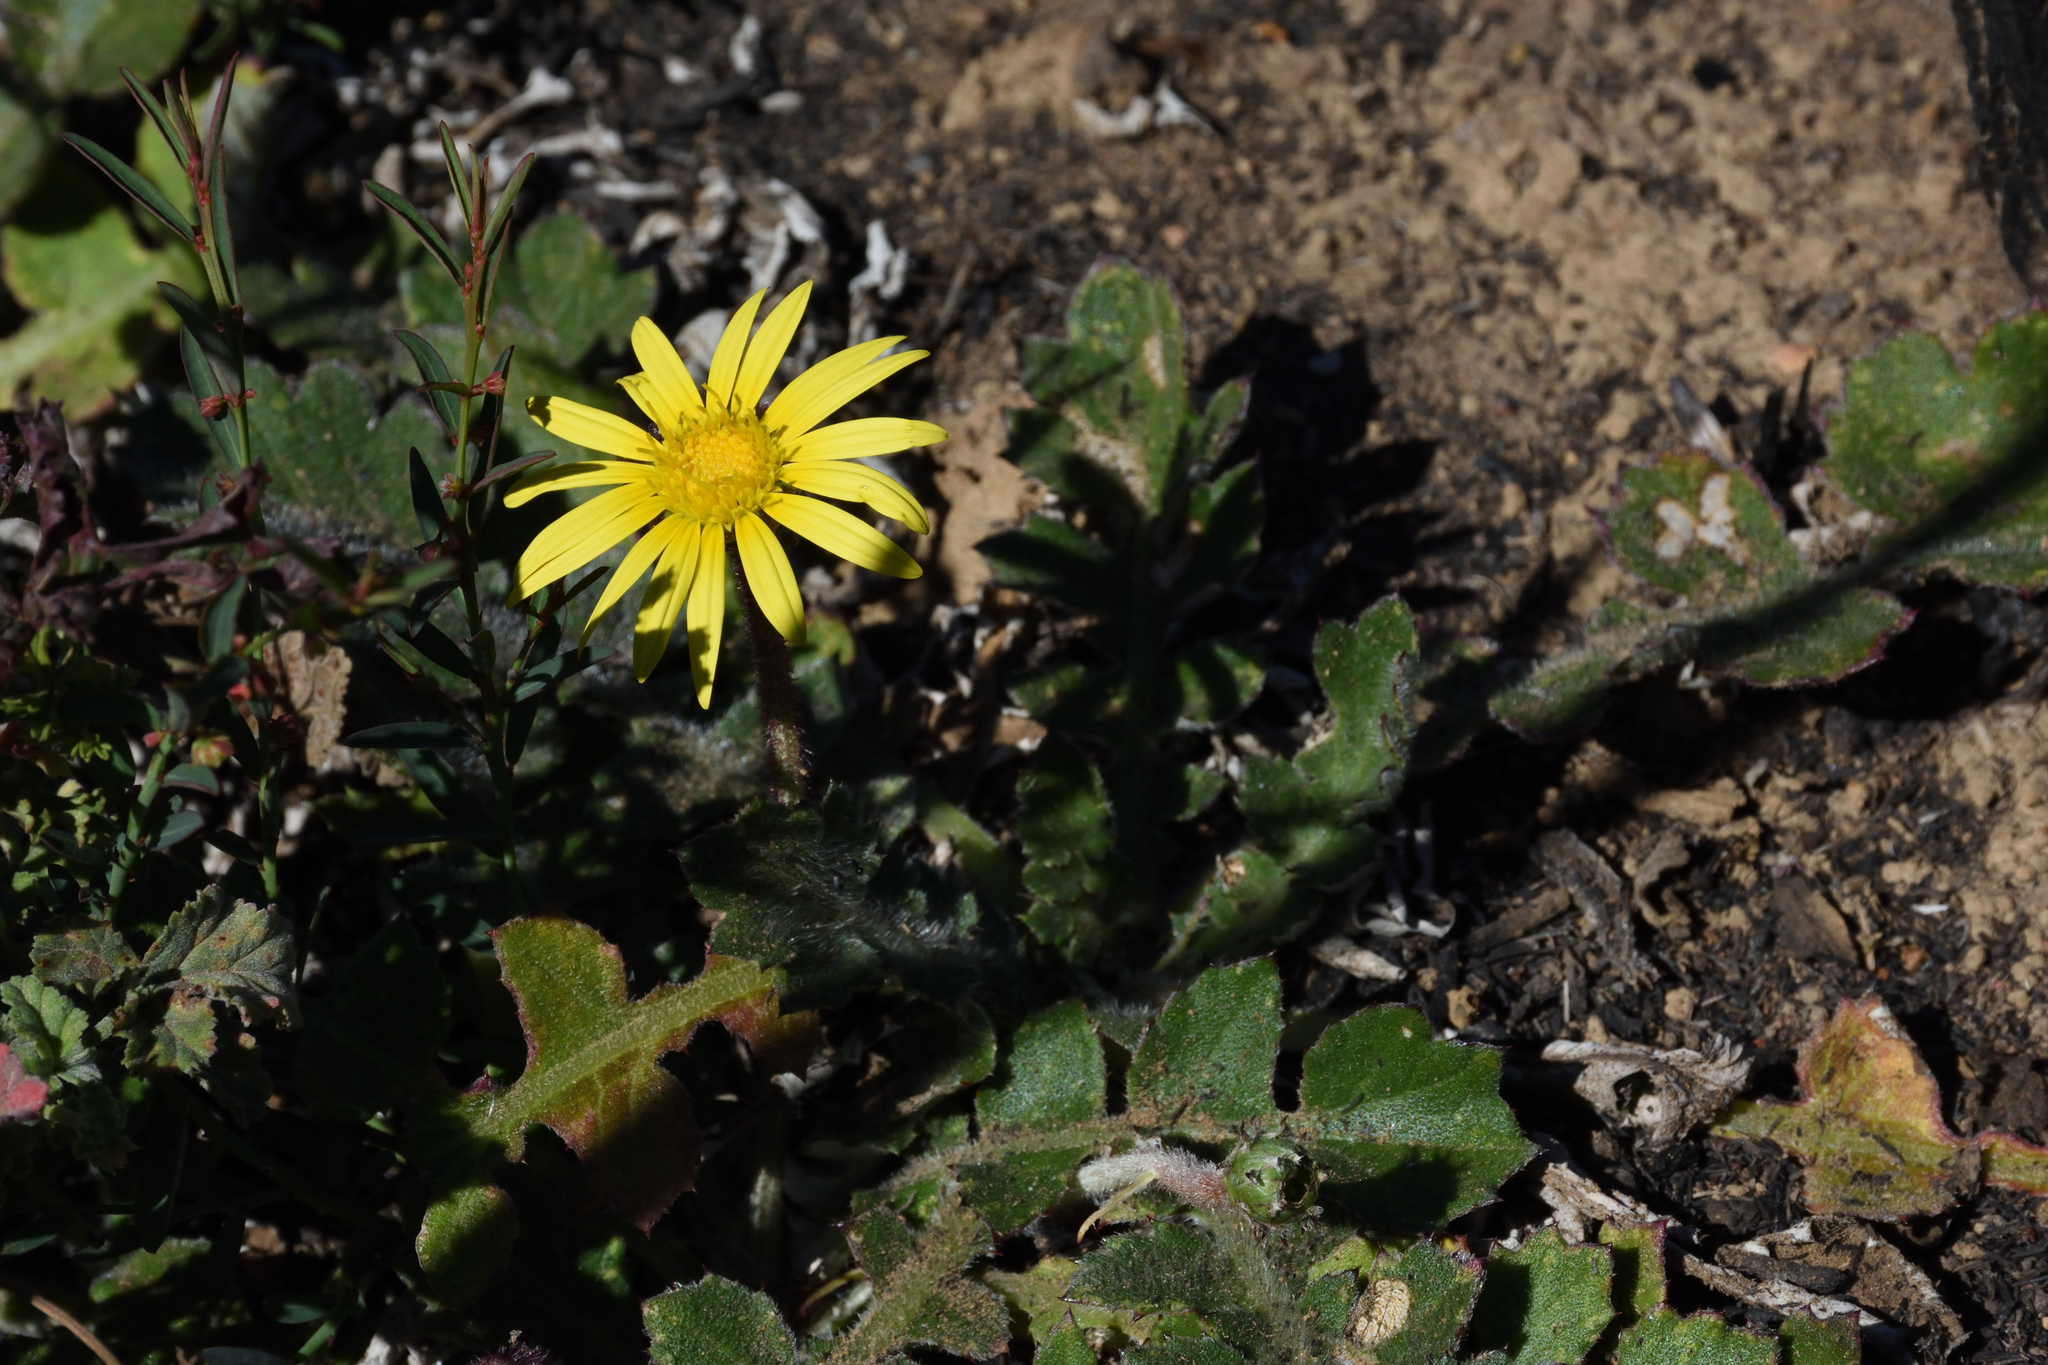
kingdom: Plantae
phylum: Tracheophyta
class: Magnoliopsida
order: Asterales
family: Asteraceae
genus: Arctotheca
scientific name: Arctotheca prostrata
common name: Capeweed
